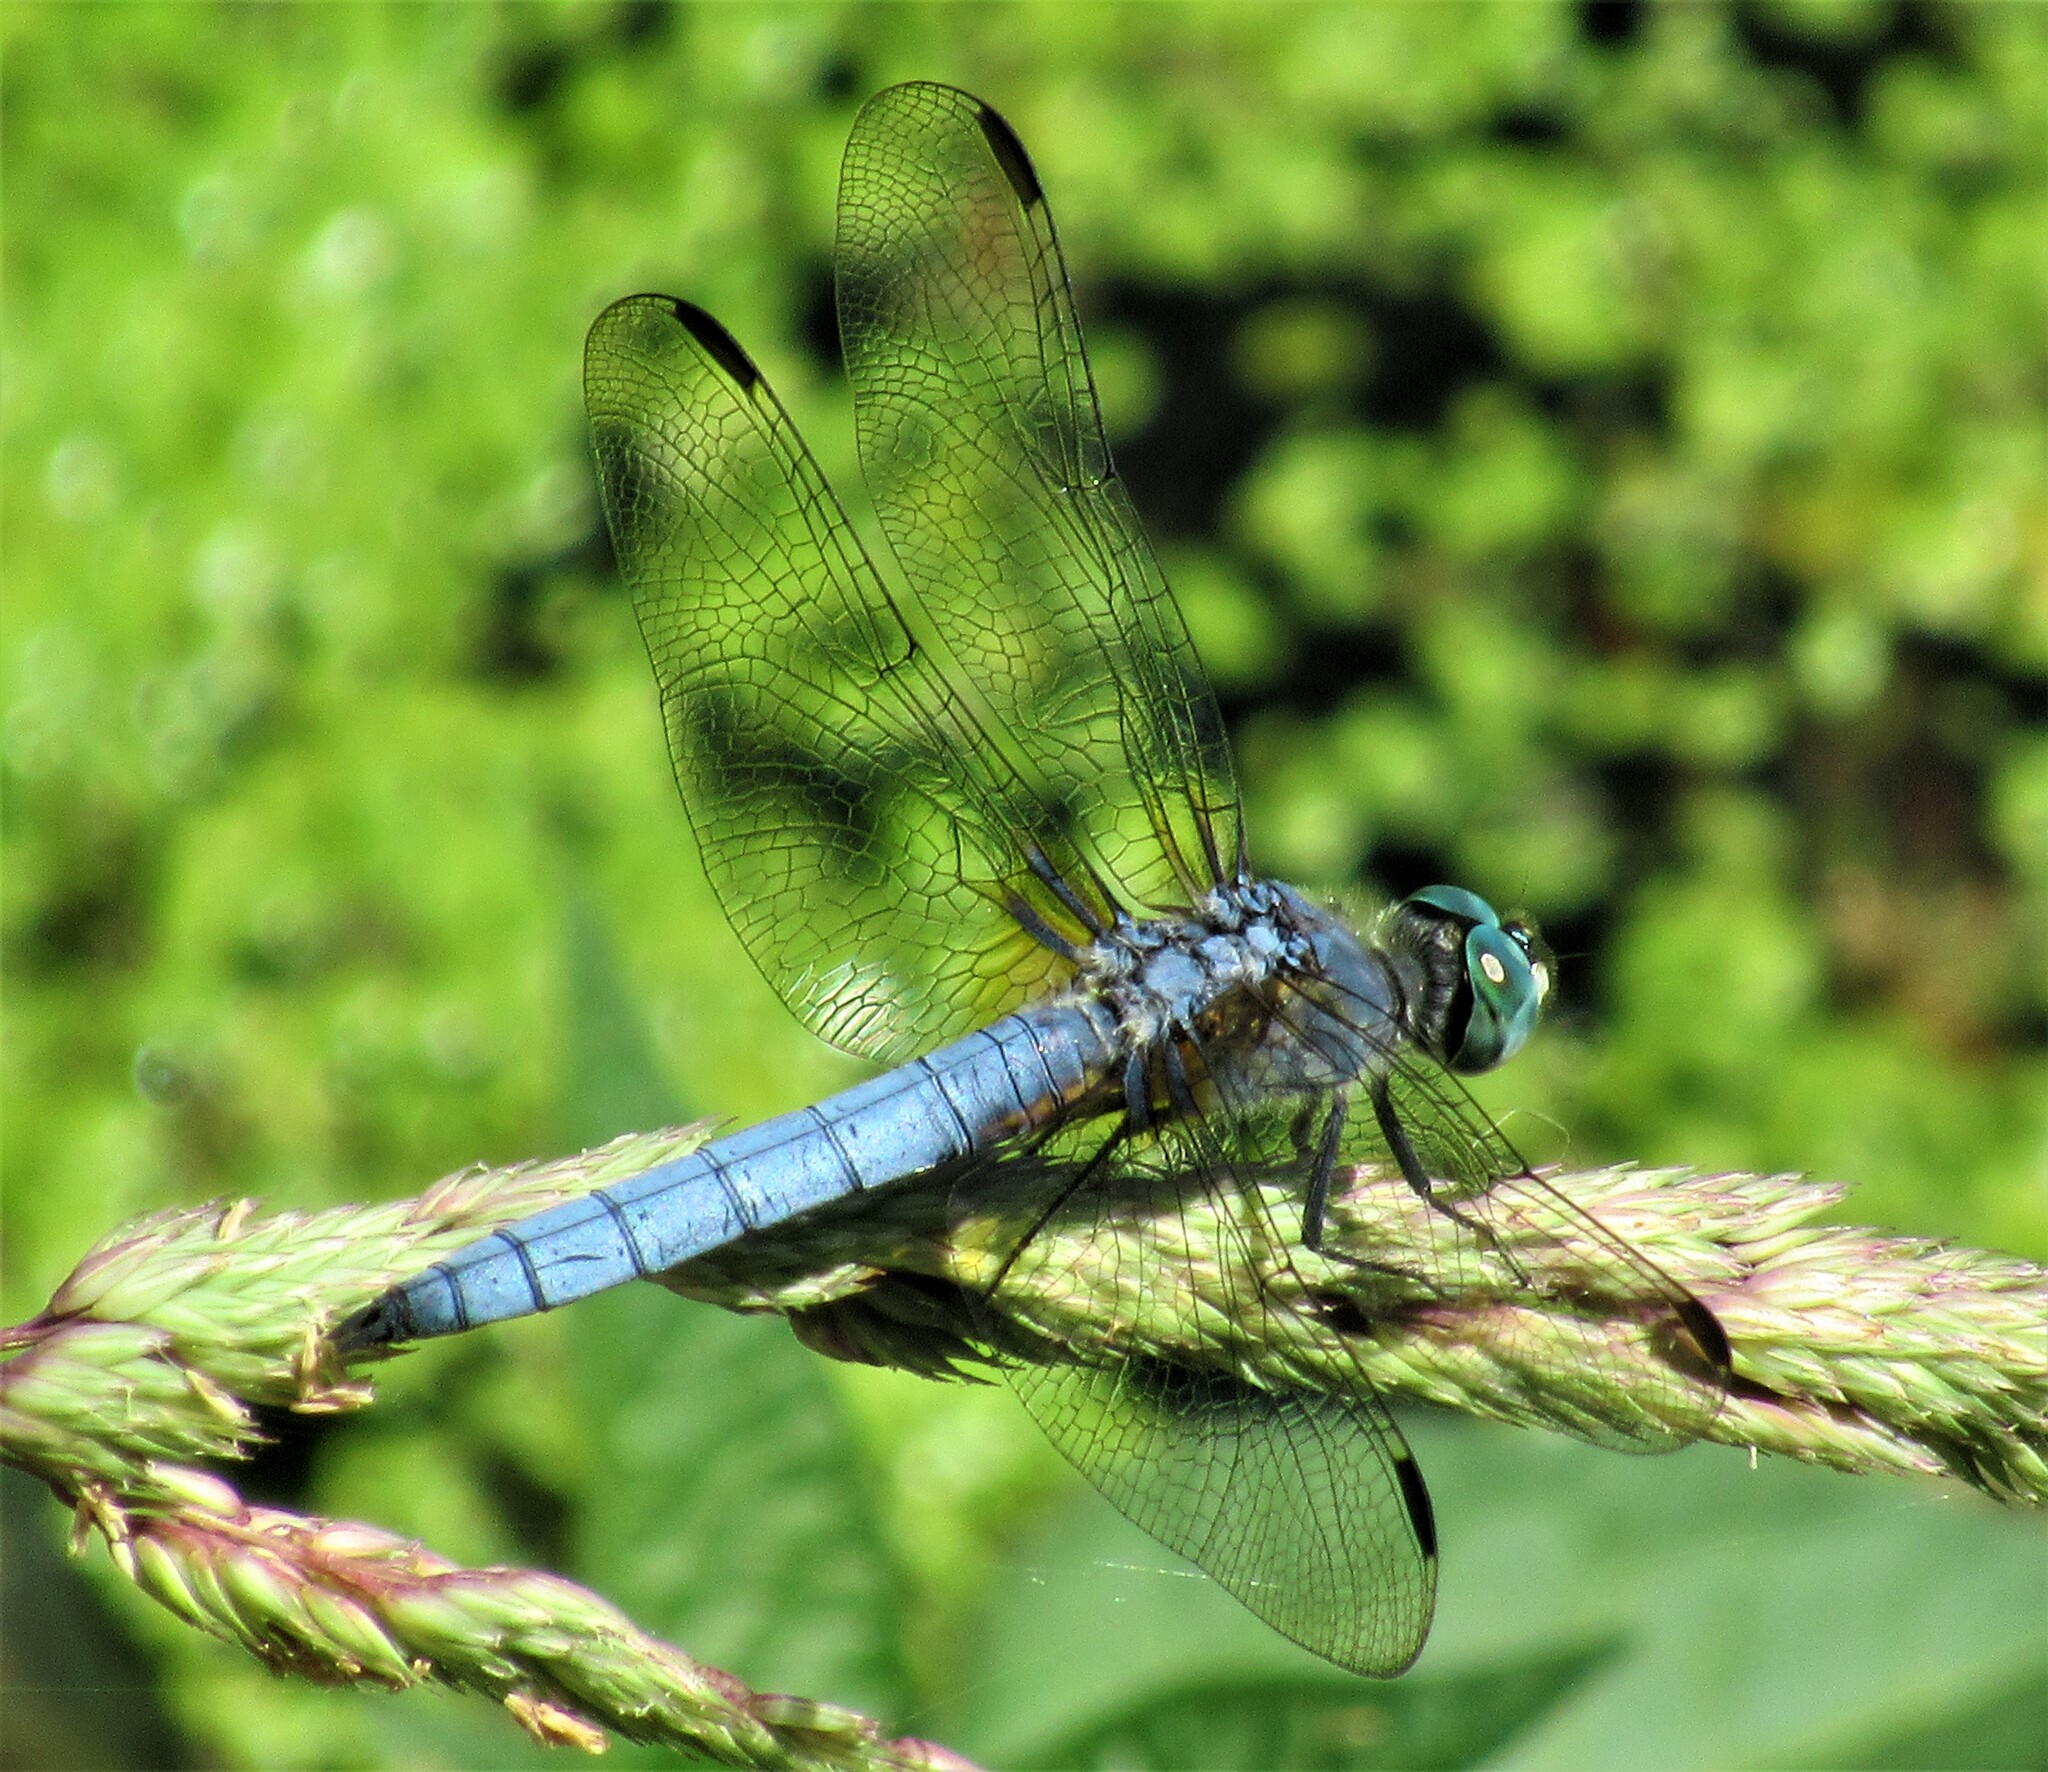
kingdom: Animalia
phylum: Arthropoda
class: Insecta
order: Odonata
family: Libellulidae
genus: Pachydiplax
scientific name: Pachydiplax longipennis
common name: Blue dasher
